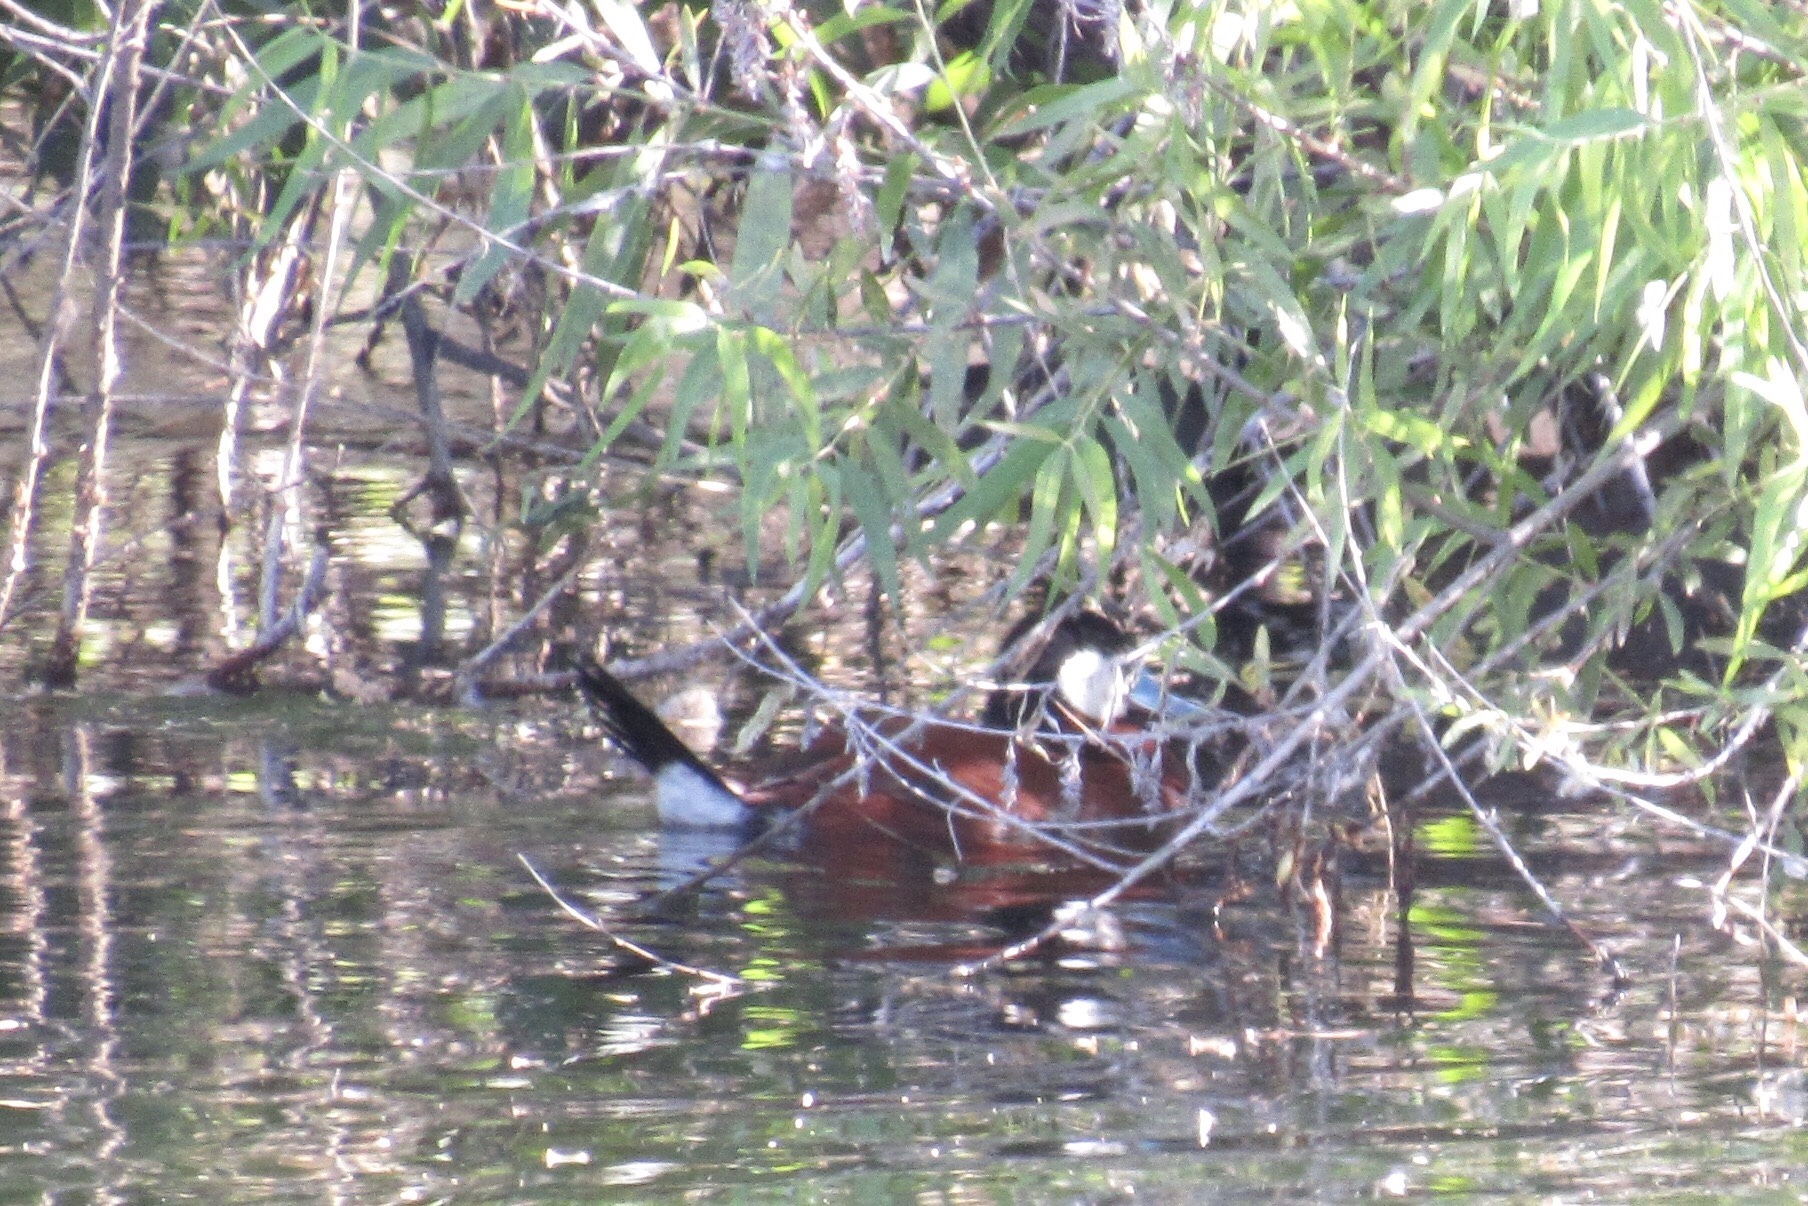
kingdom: Animalia
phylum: Chordata
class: Aves
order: Anseriformes
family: Anatidae
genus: Oxyura
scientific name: Oxyura jamaicensis
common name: Ruddy duck
